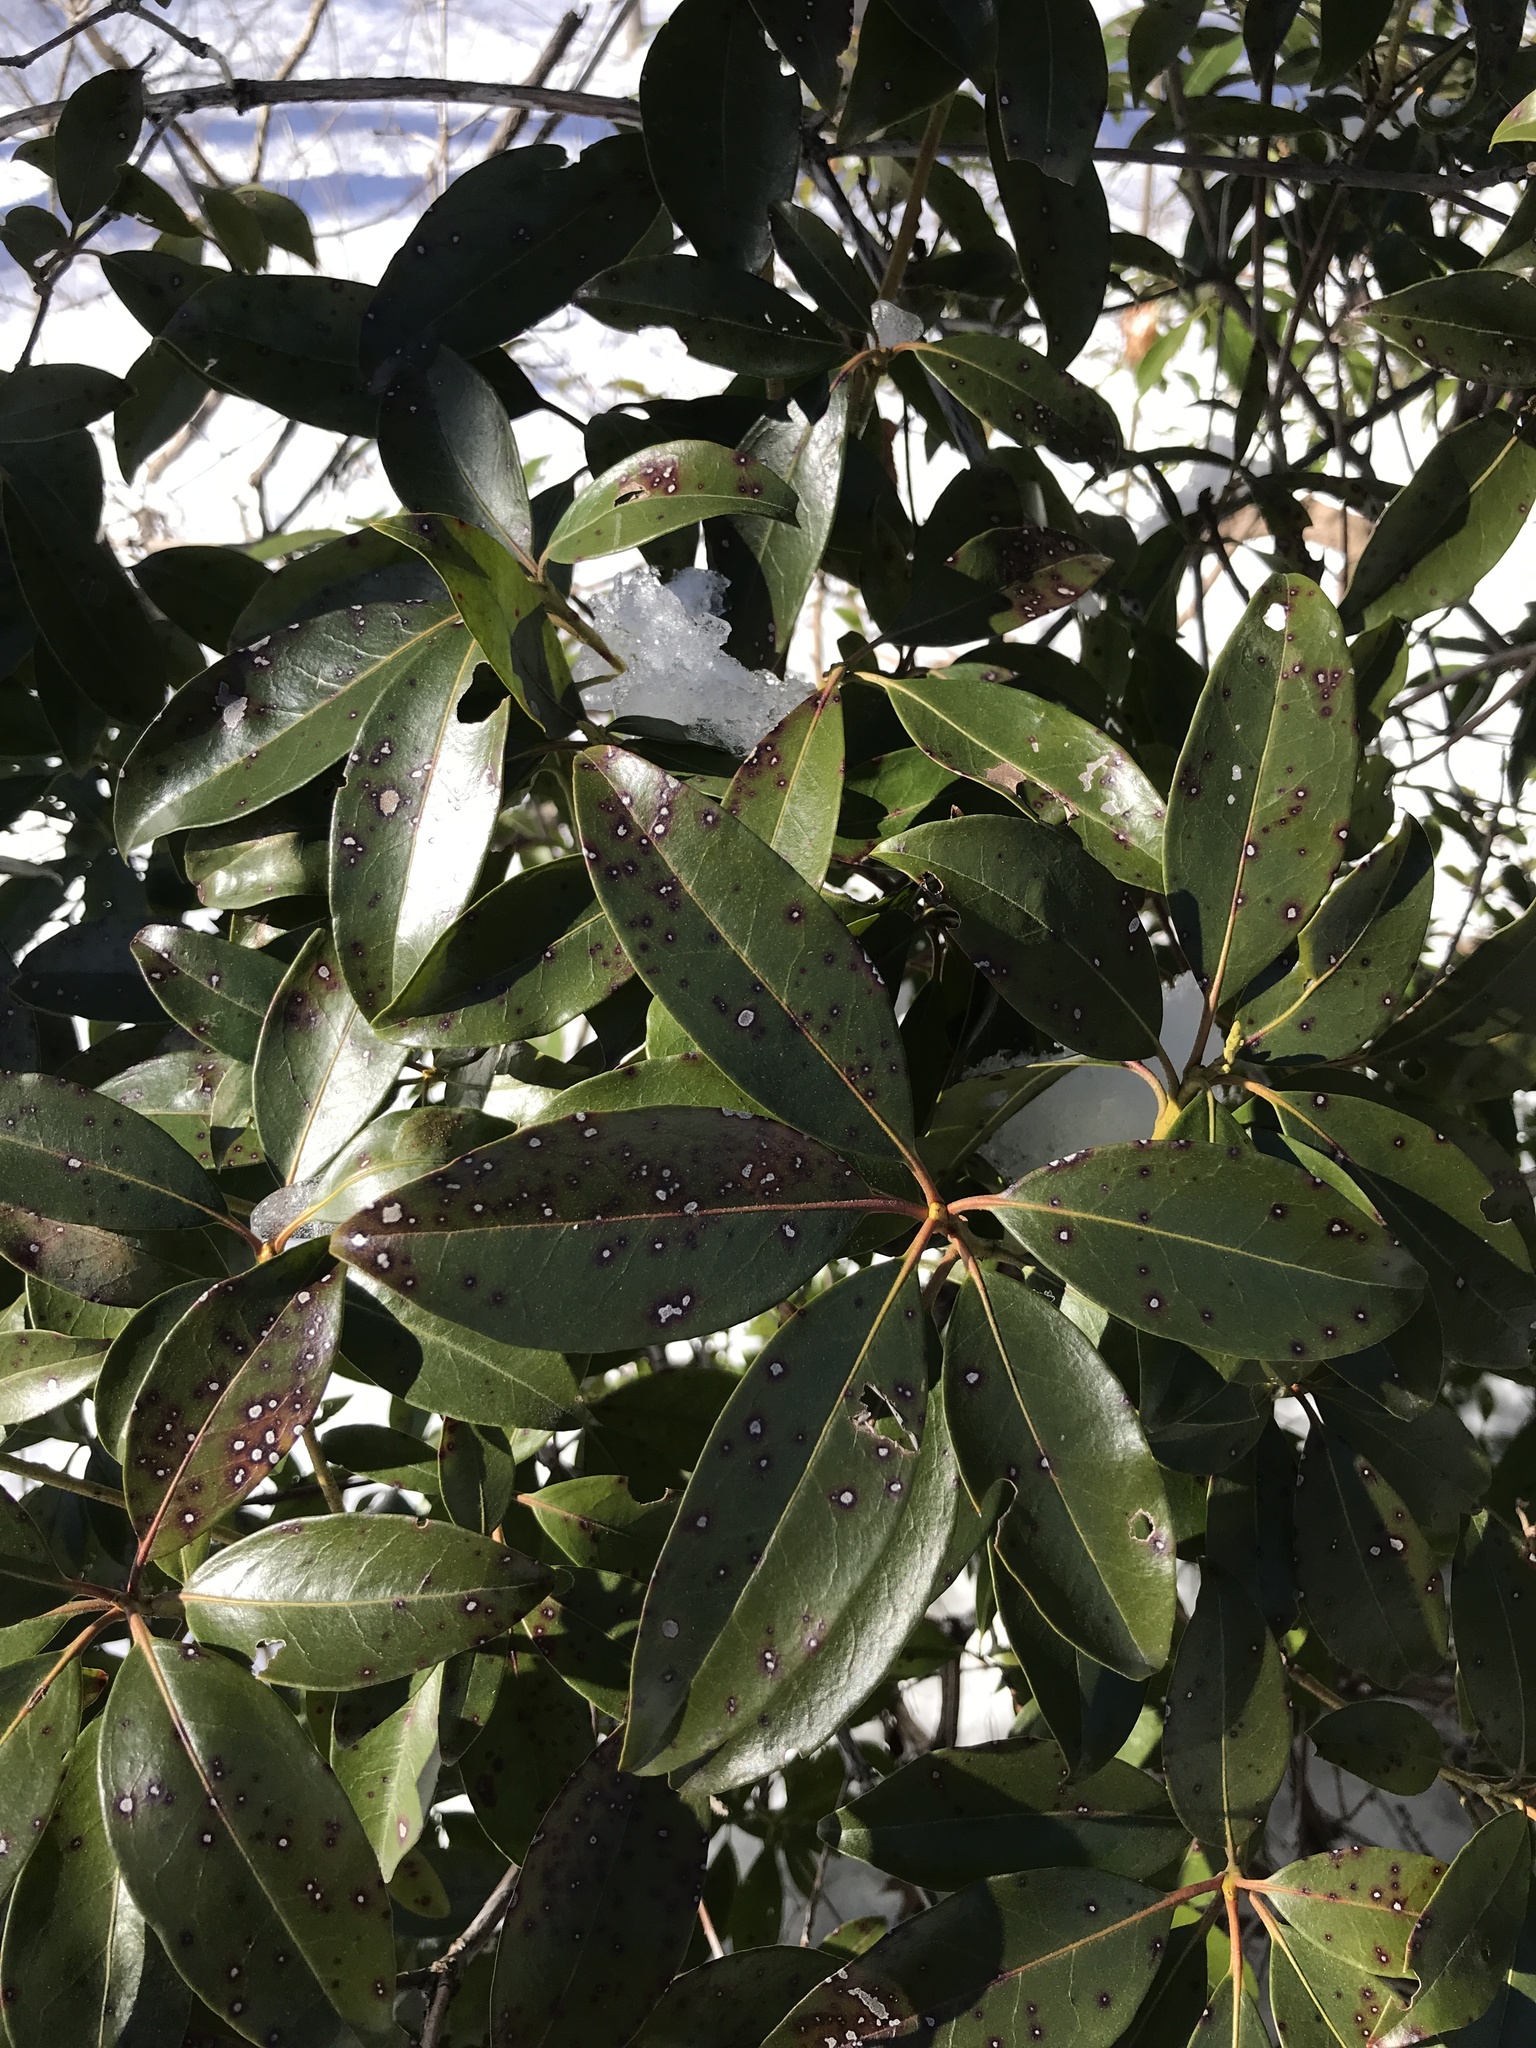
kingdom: Plantae
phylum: Tracheophyta
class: Magnoliopsida
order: Ericales
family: Ericaceae
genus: Kalmia
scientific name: Kalmia latifolia
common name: Mountain-laurel
